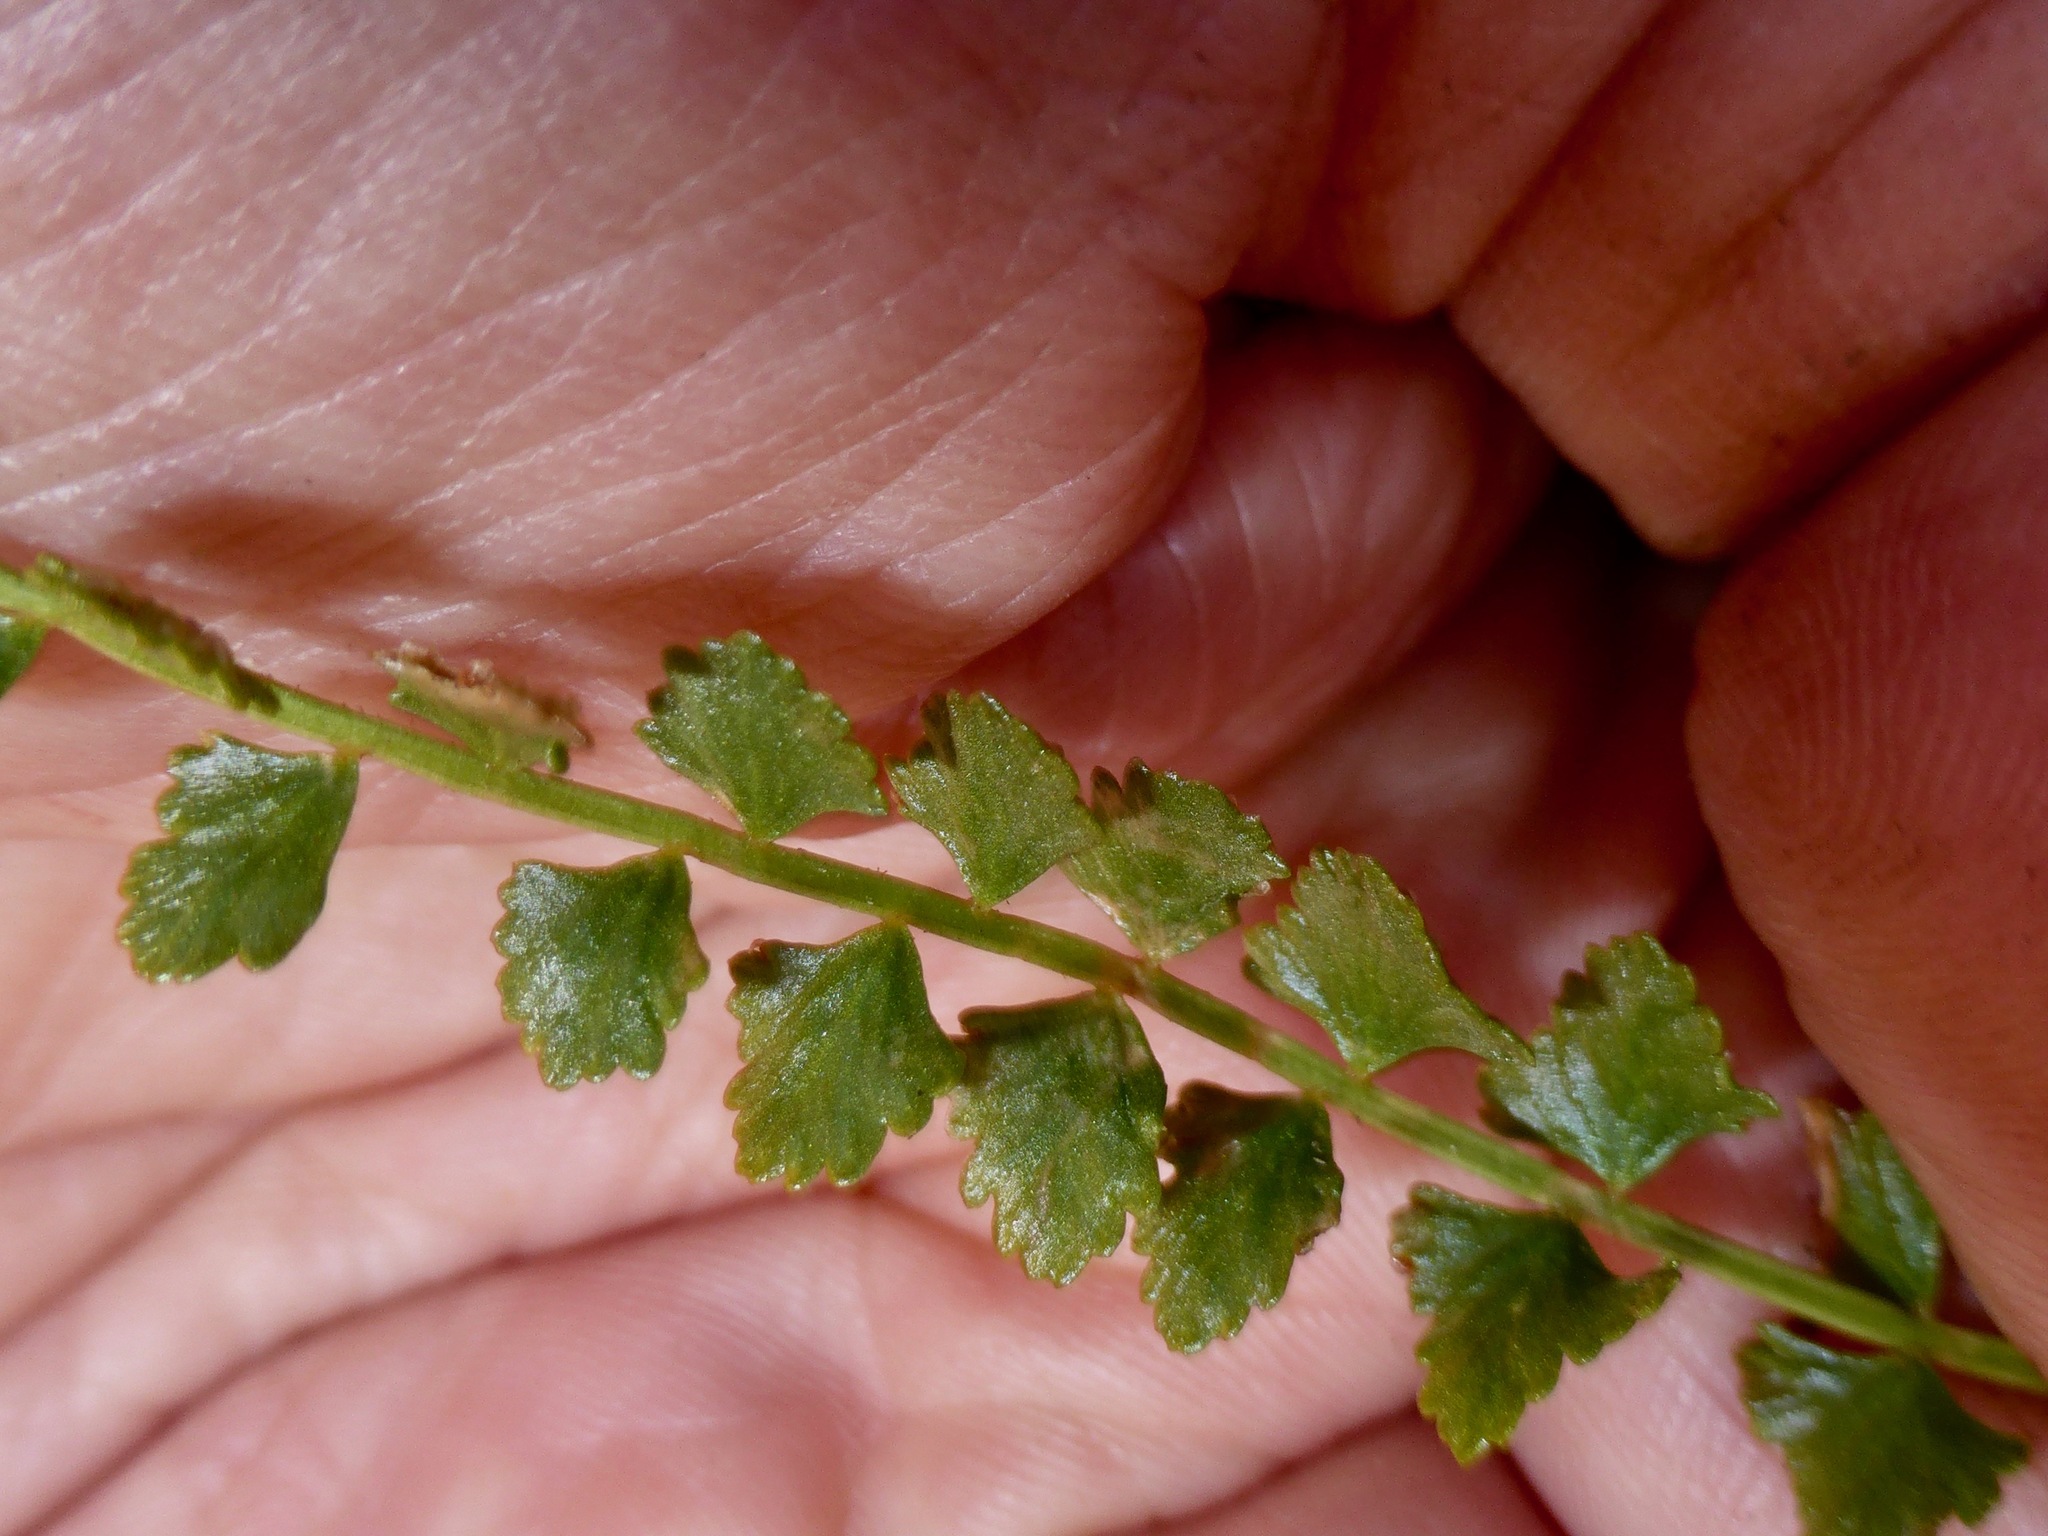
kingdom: Plantae
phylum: Tracheophyta
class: Polypodiopsida
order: Polypodiales
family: Aspleniaceae
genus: Asplenium
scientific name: Asplenium flabellifolium
